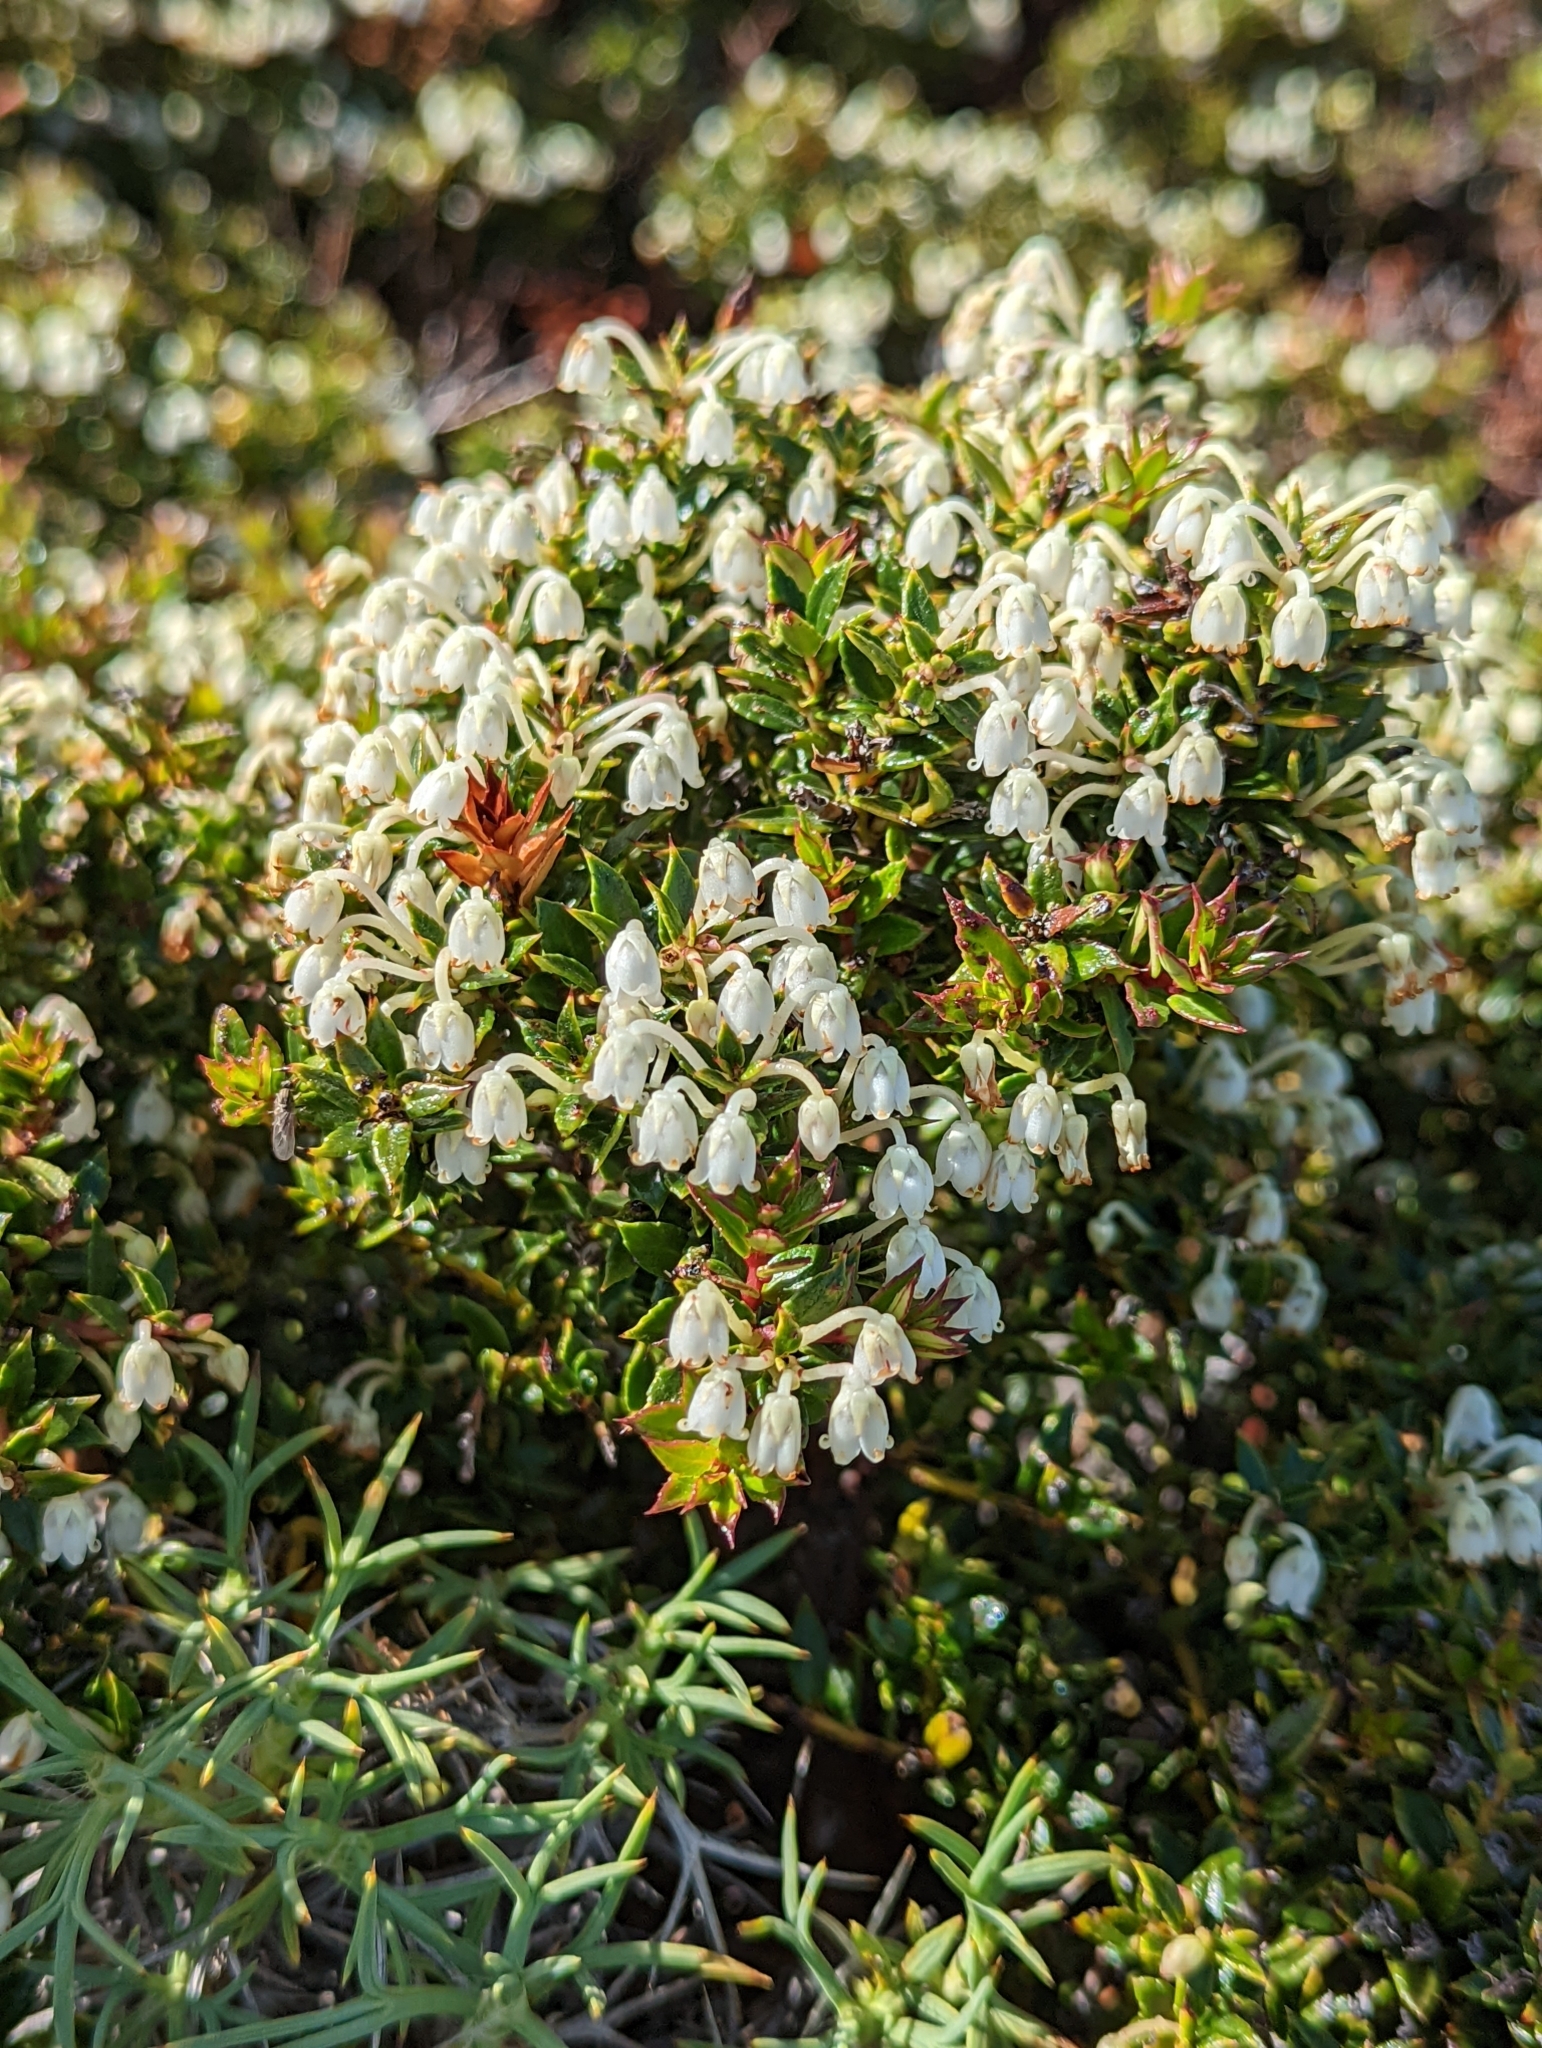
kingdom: Plantae
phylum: Tracheophyta
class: Magnoliopsida
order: Ericales
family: Ericaceae
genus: Gaultheria
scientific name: Gaultheria mucronata
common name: Prickly heath
